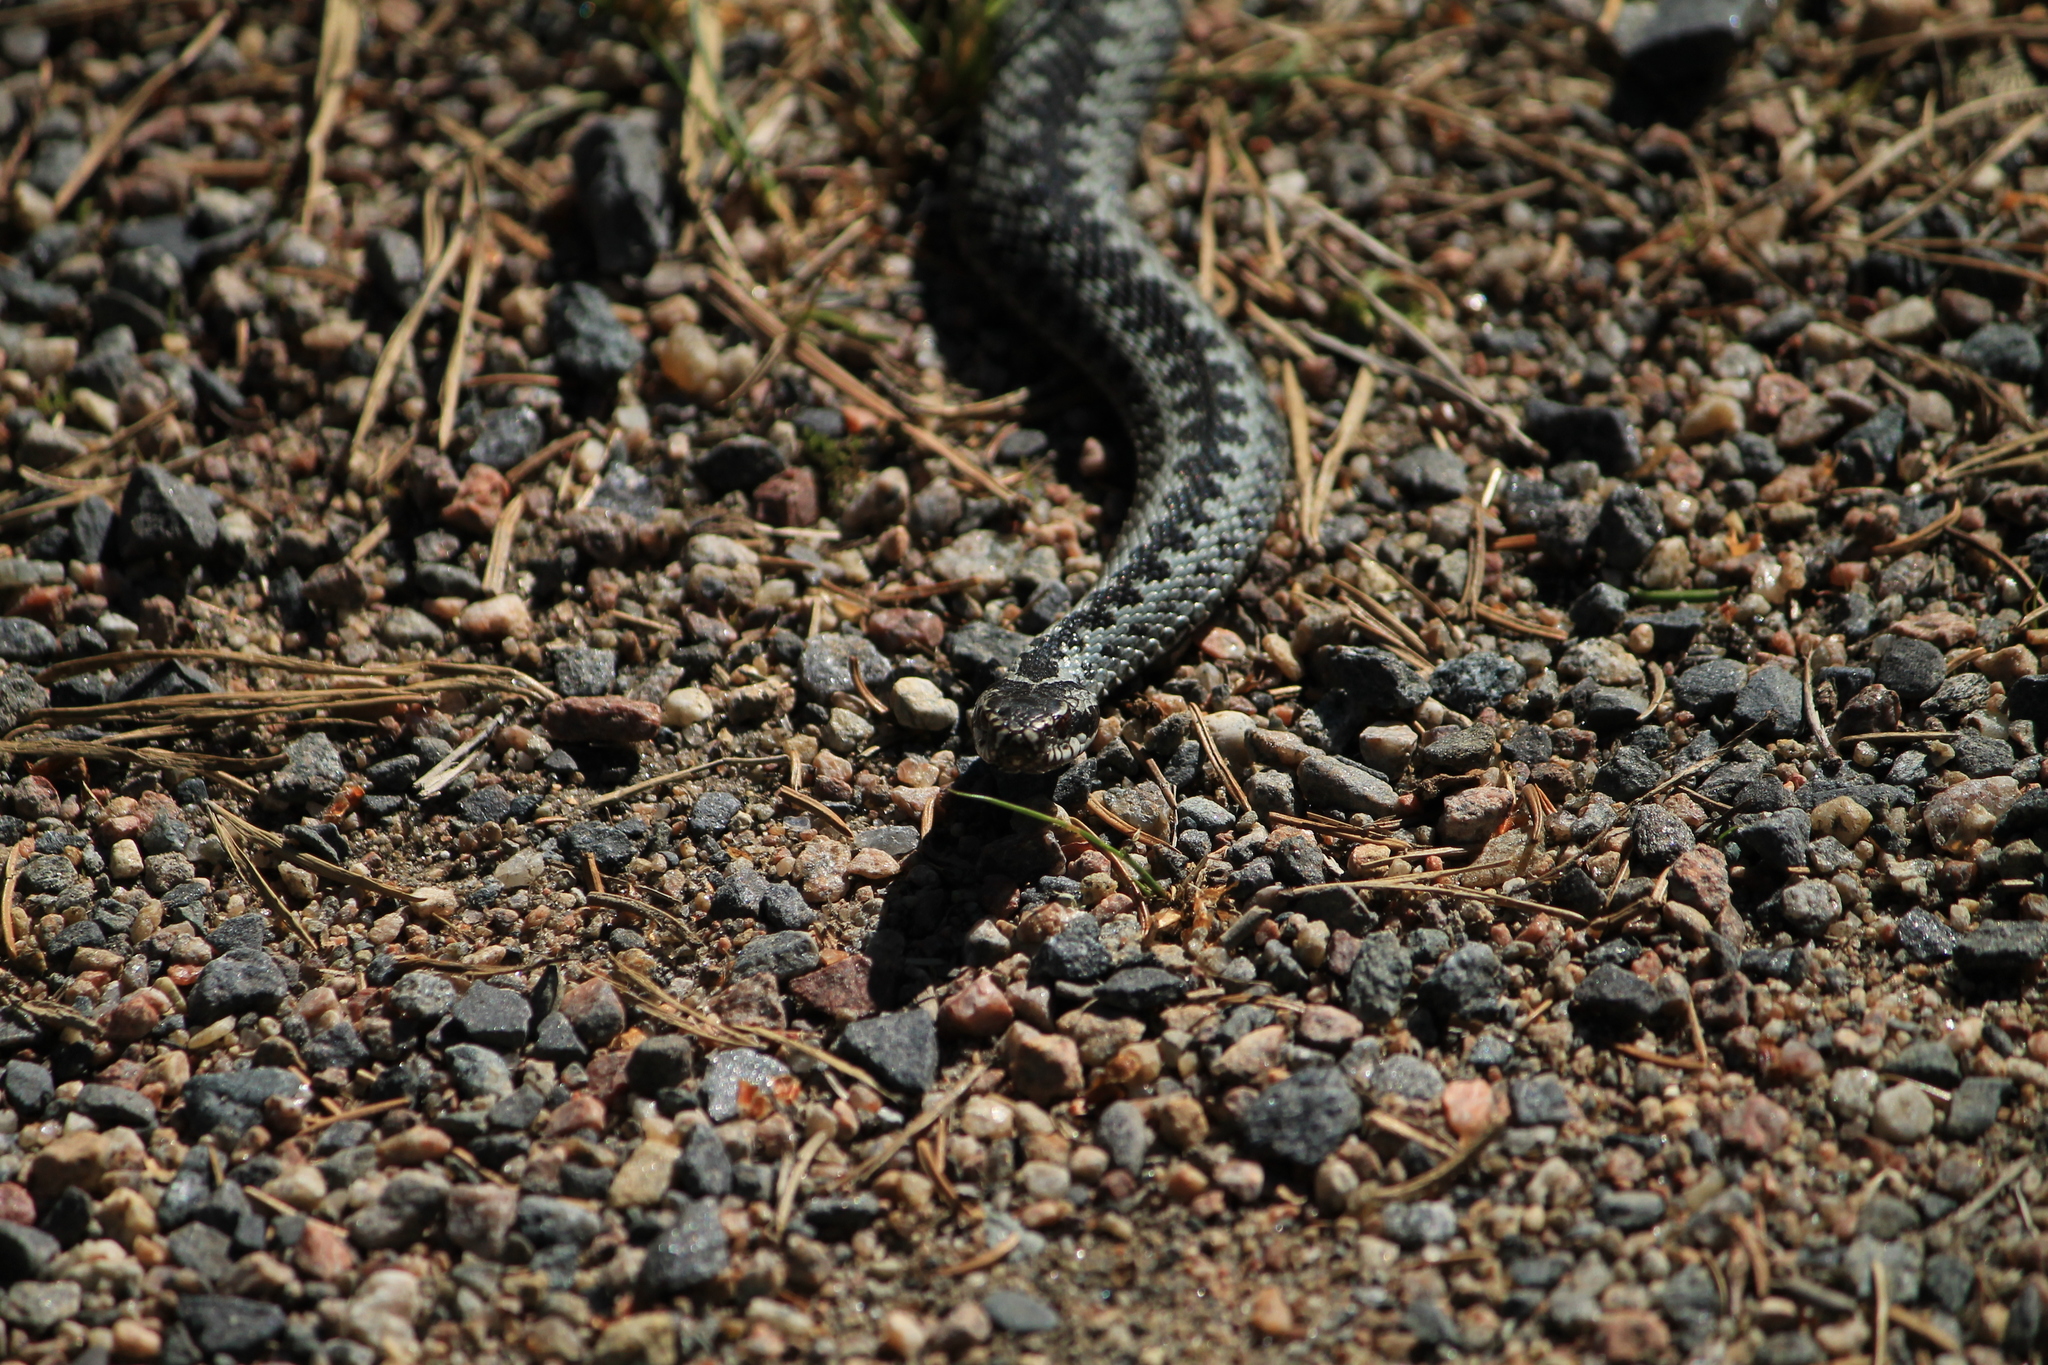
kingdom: Animalia
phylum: Chordata
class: Squamata
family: Viperidae
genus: Vipera
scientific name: Vipera berus
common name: Adder
